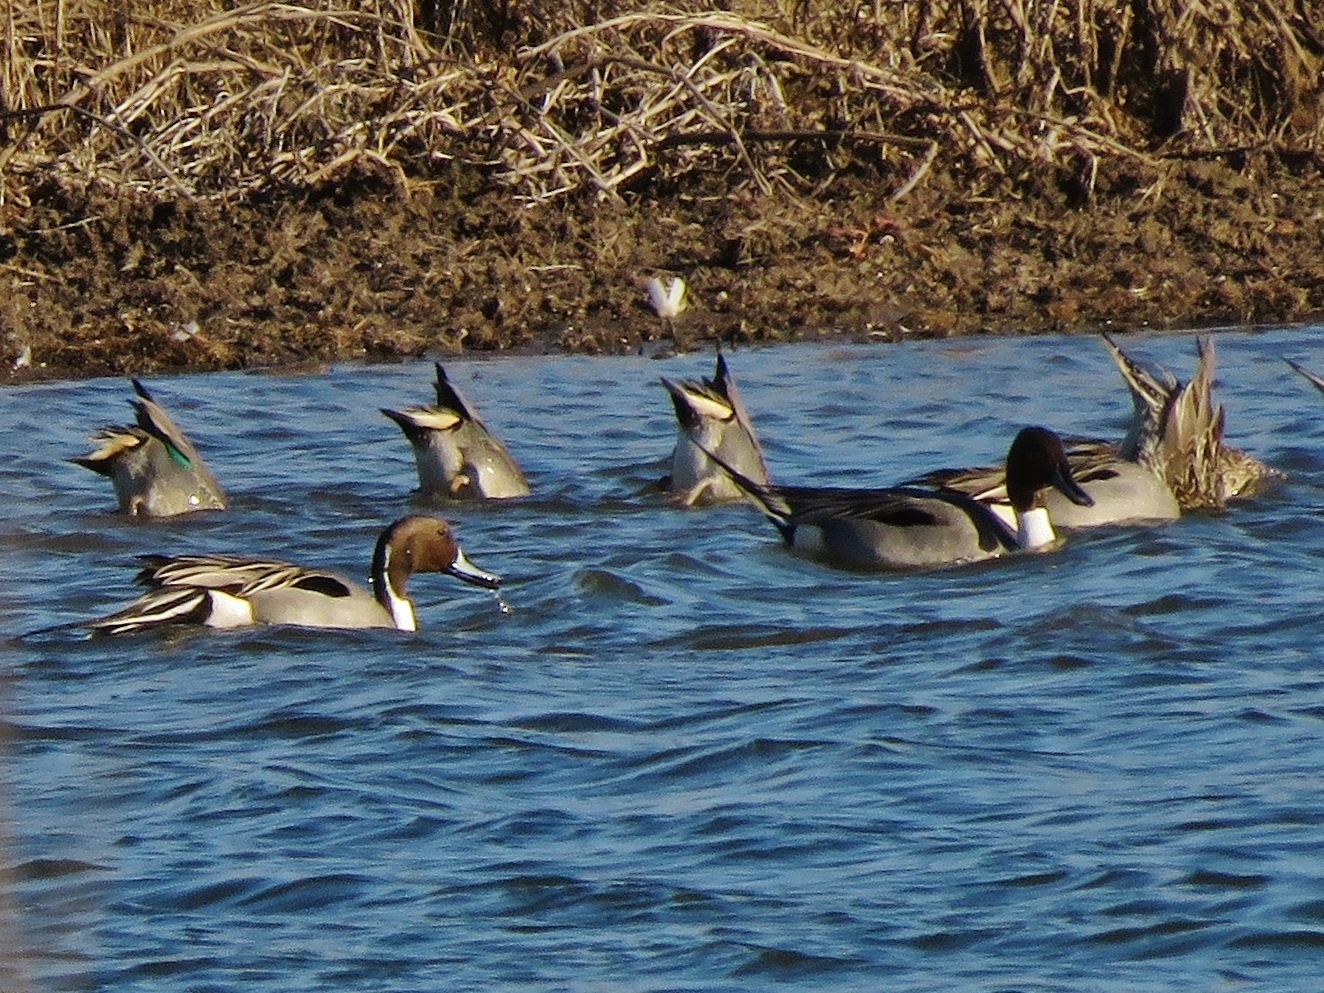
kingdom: Animalia
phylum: Chordata
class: Aves
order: Anseriformes
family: Anatidae
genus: Anas
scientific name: Anas acuta
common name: Northern pintail
